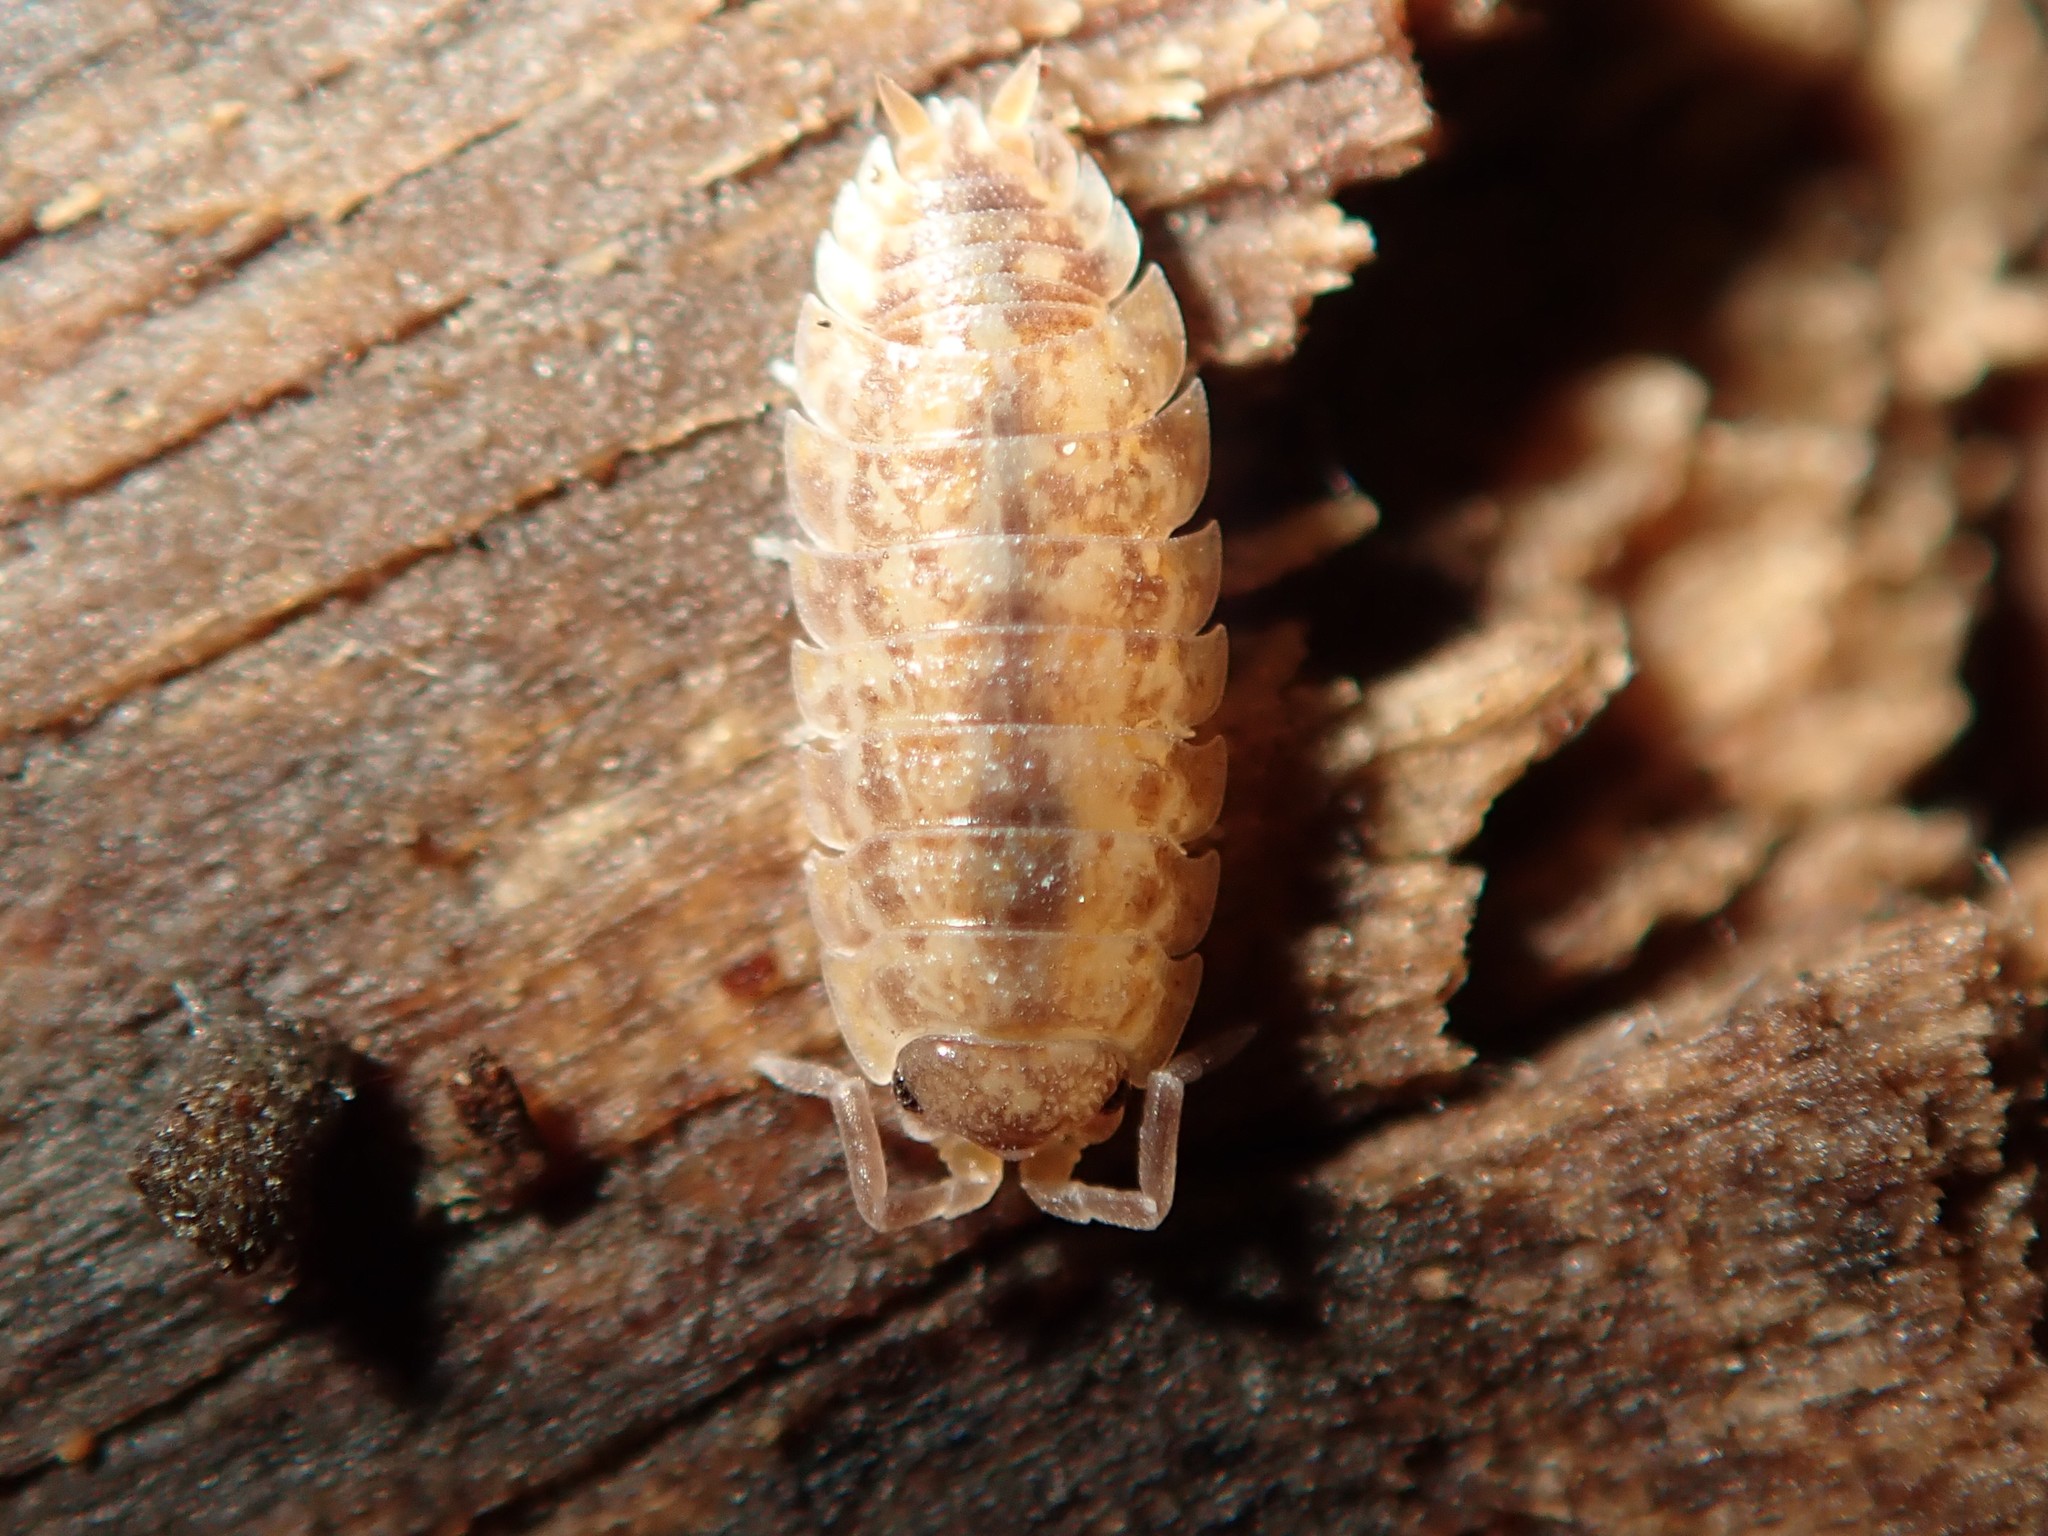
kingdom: Animalia
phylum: Arthropoda
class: Malacostraca
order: Isopoda
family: Porcellionidae
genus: Porcellio
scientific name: Porcellio scaber
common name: Common rough woodlouse
